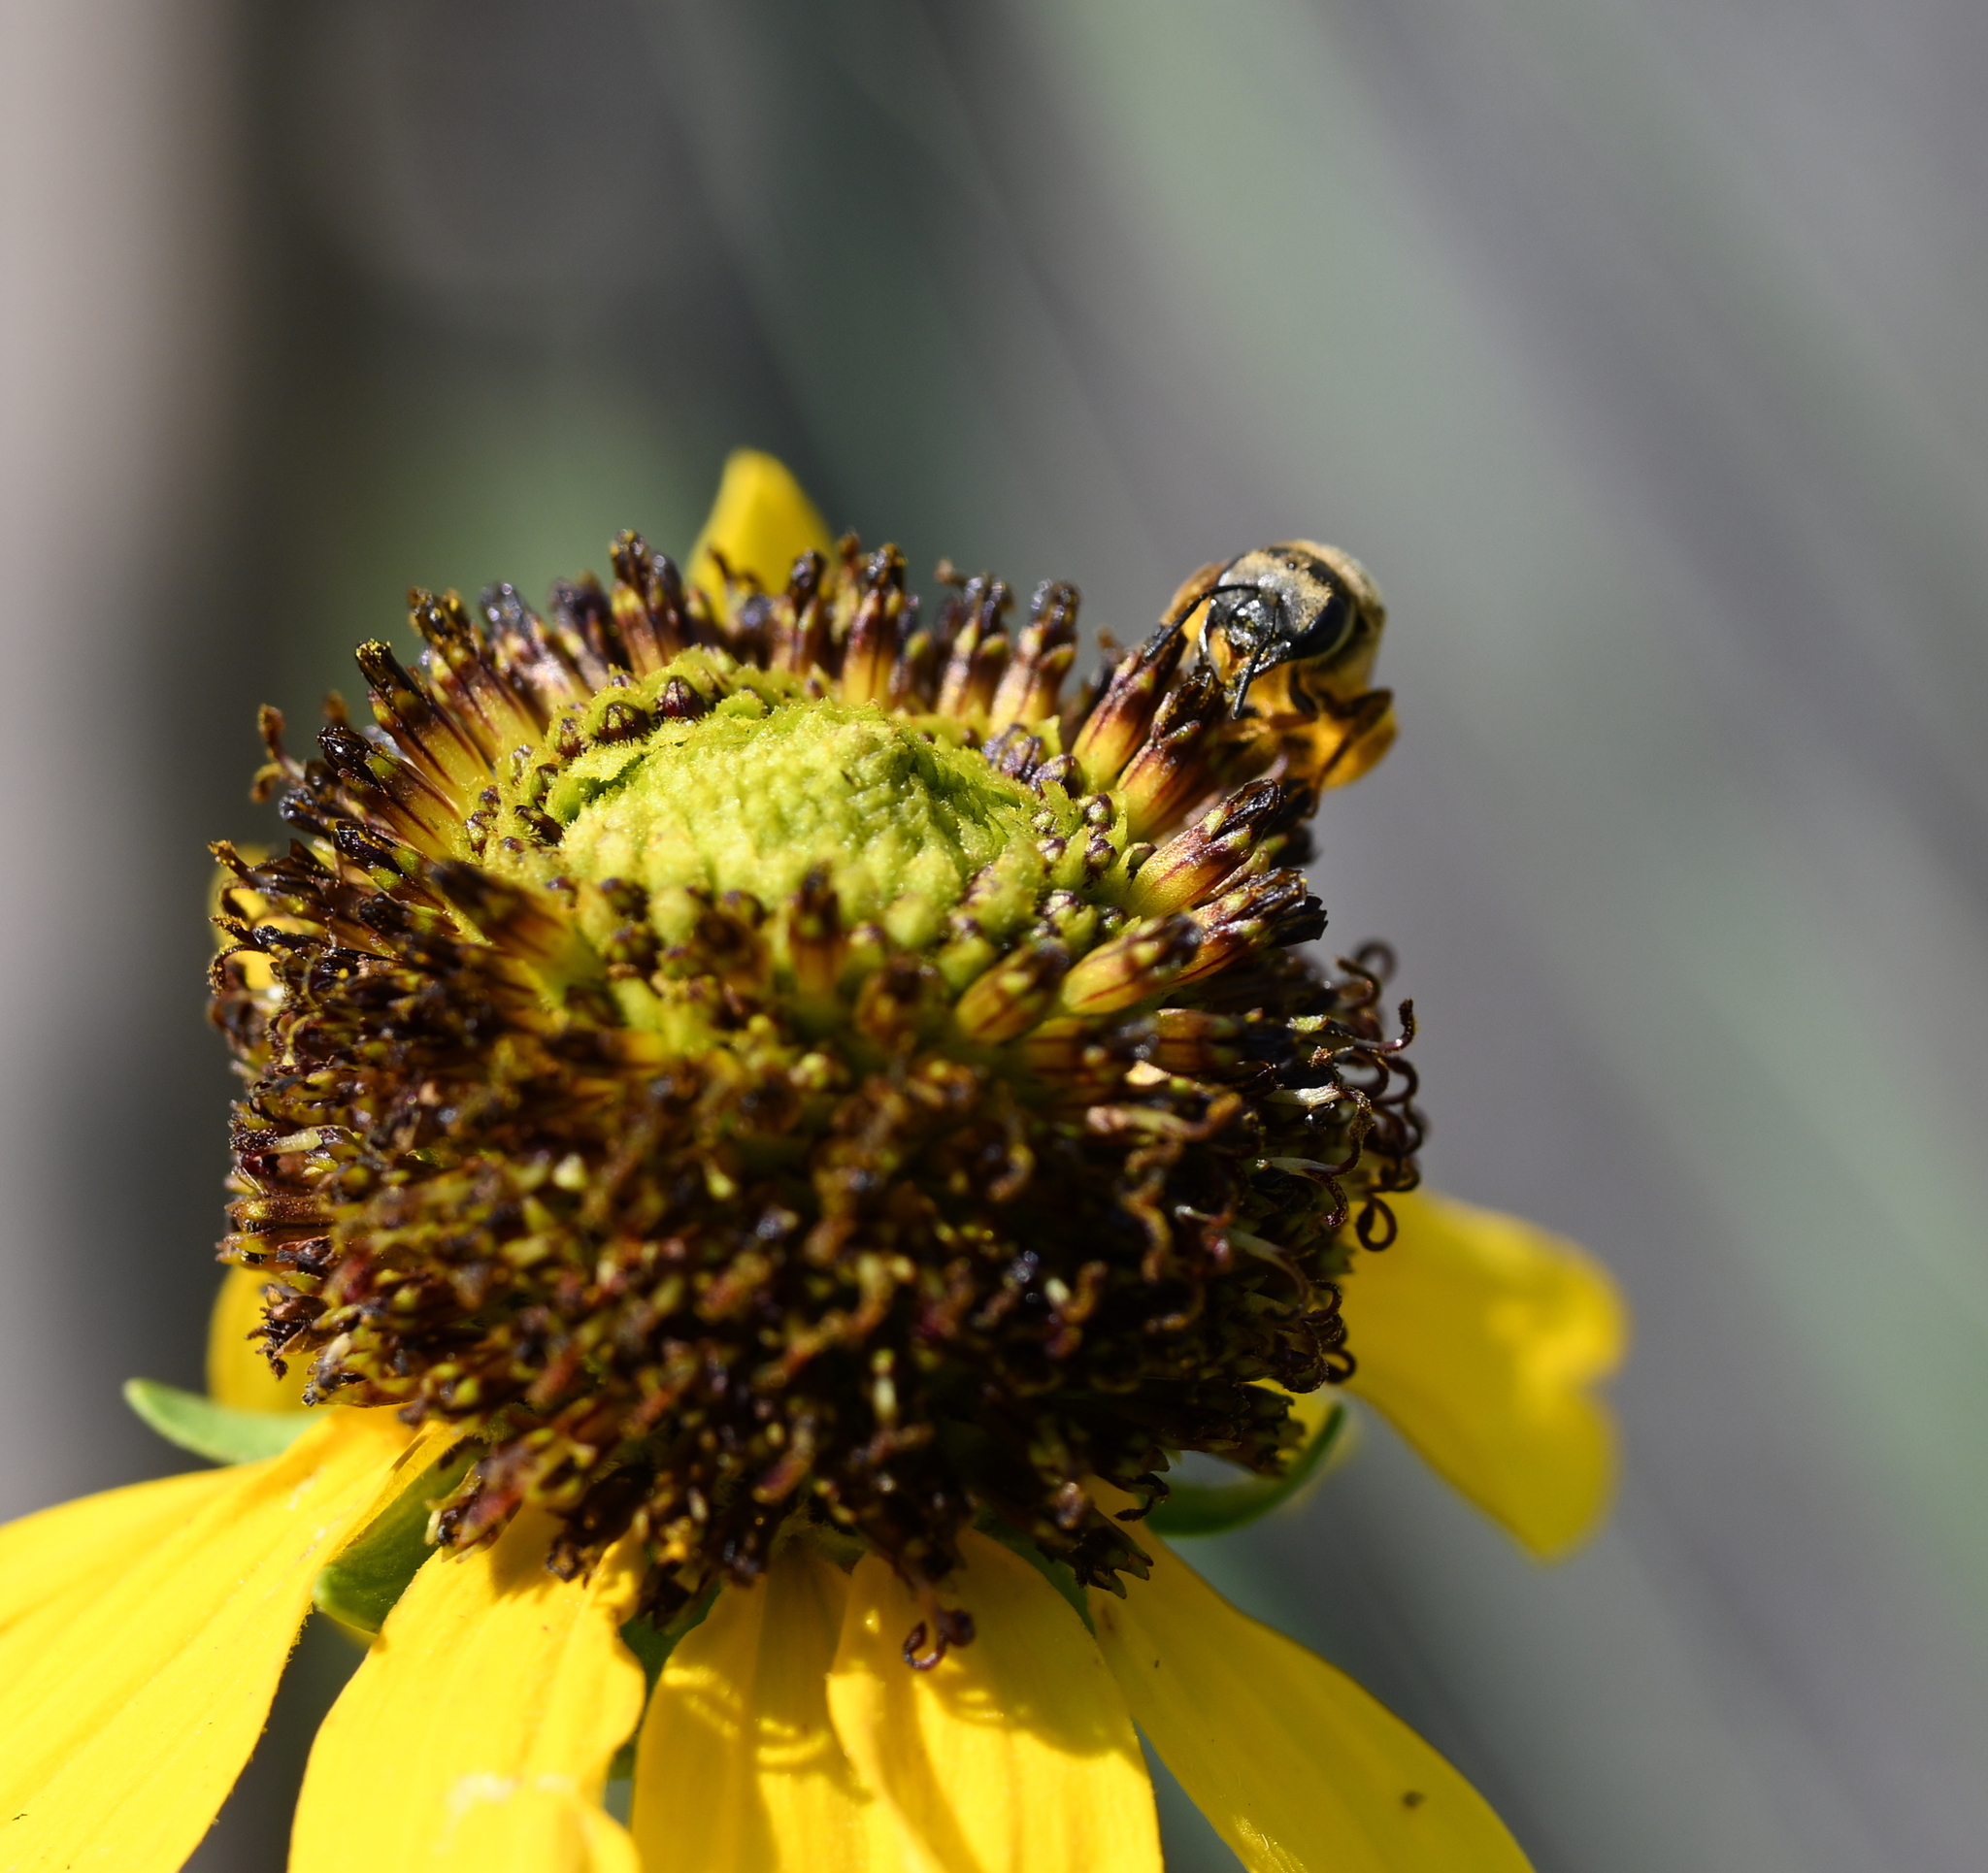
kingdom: Animalia
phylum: Arthropoda
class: Insecta
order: Hymenoptera
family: Halictidae
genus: Halictus
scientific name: Halictus poeyi
